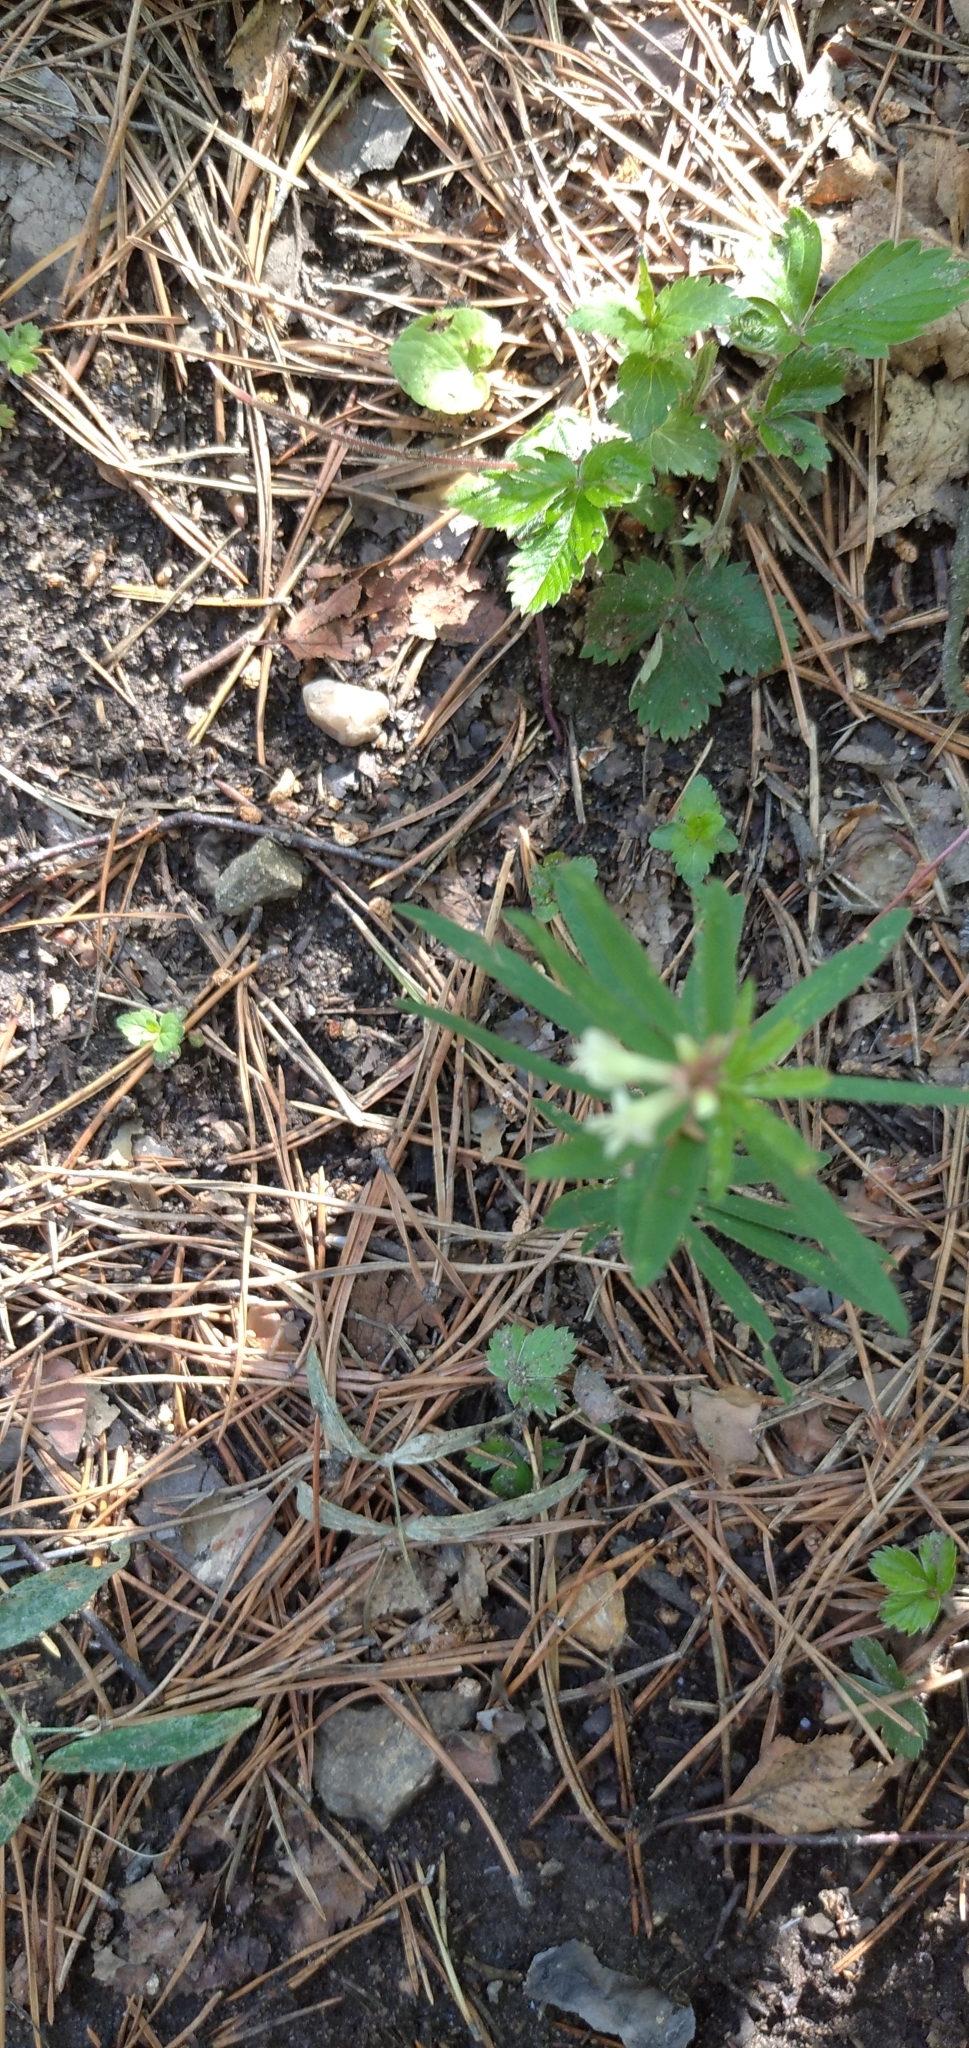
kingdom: Plantae
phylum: Tracheophyta
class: Magnoliopsida
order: Fabales
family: Fabaceae
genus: Trifolium
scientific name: Trifolium lupinaster
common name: Lupine clover
